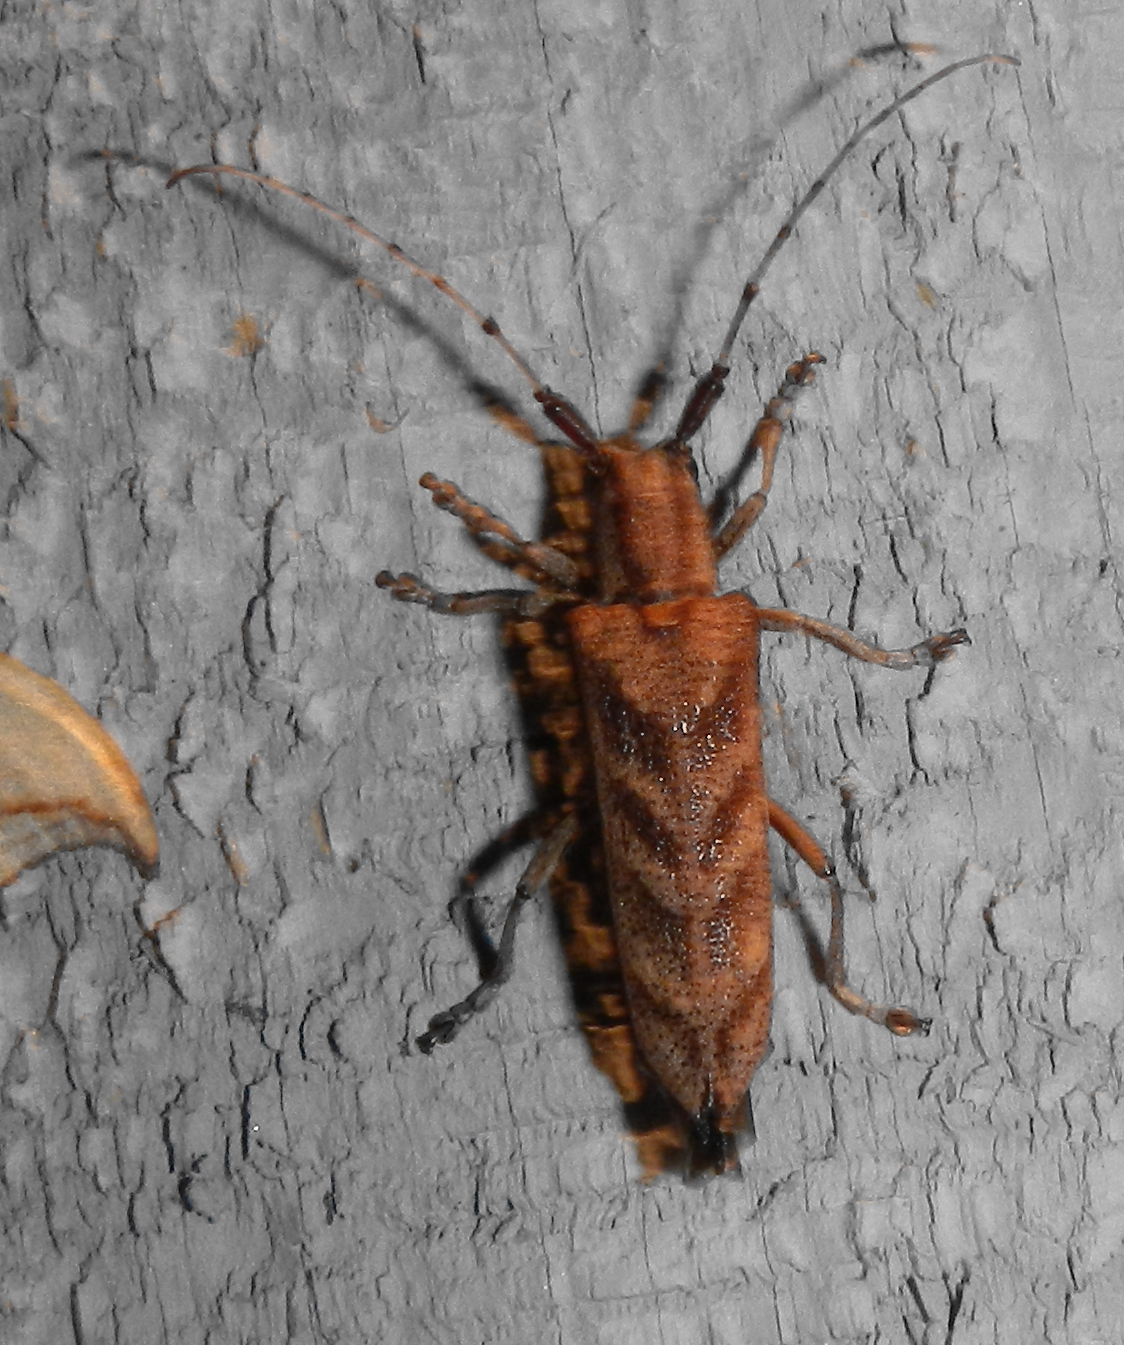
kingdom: Animalia
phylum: Arthropoda
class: Insecta
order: Coleoptera
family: Cerambycidae
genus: Saperda
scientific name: Saperda obliqua
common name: Alder borer
